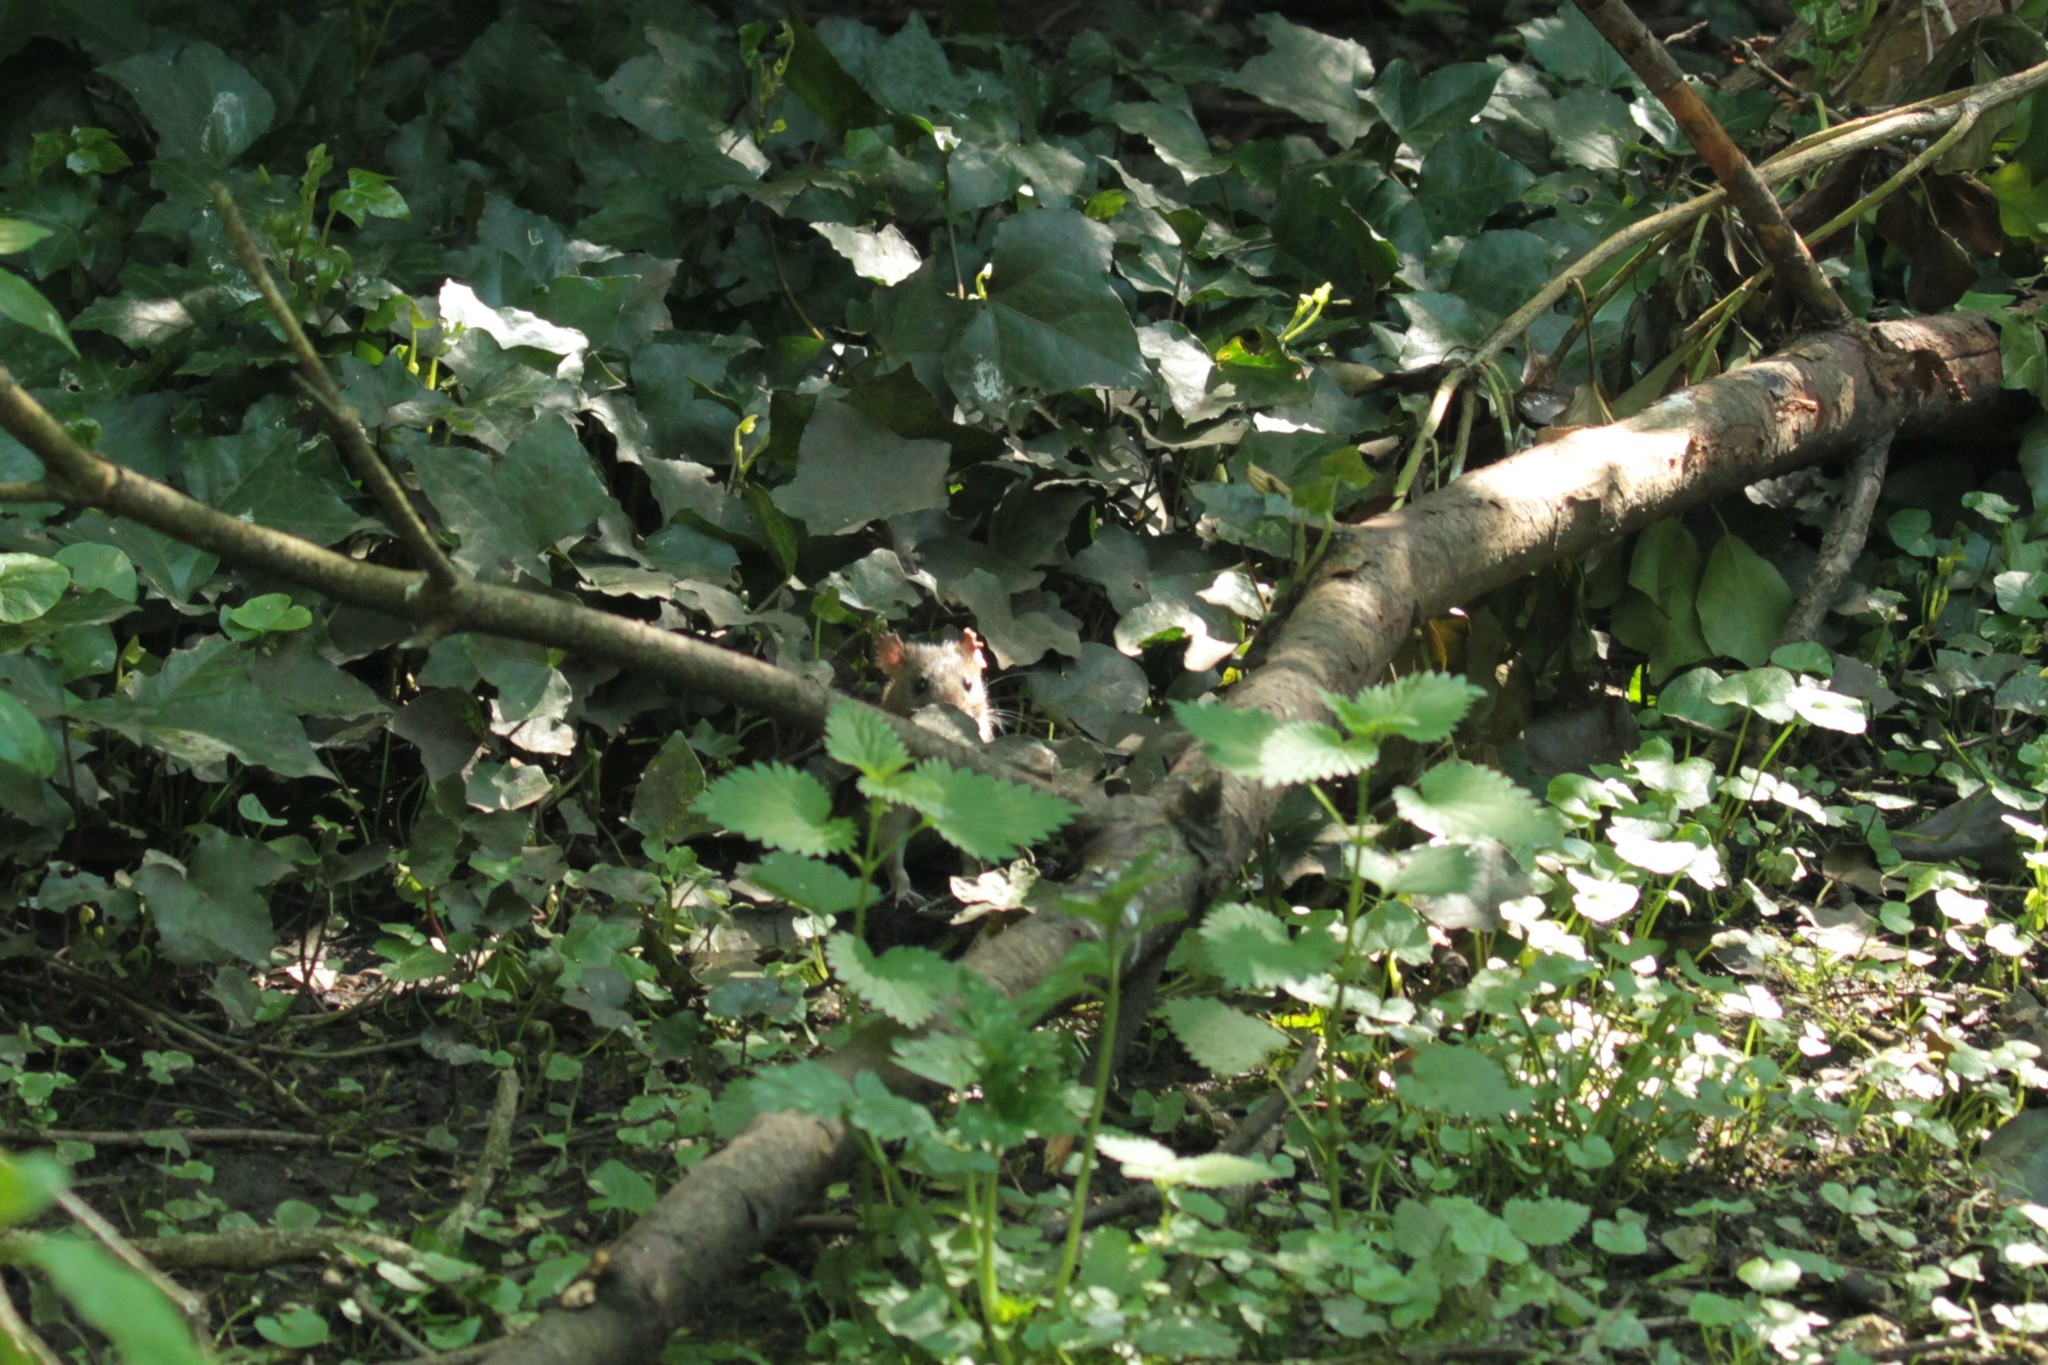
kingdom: Animalia
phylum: Chordata
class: Mammalia
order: Rodentia
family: Muridae
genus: Rattus
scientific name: Rattus norvegicus
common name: Brown rat
